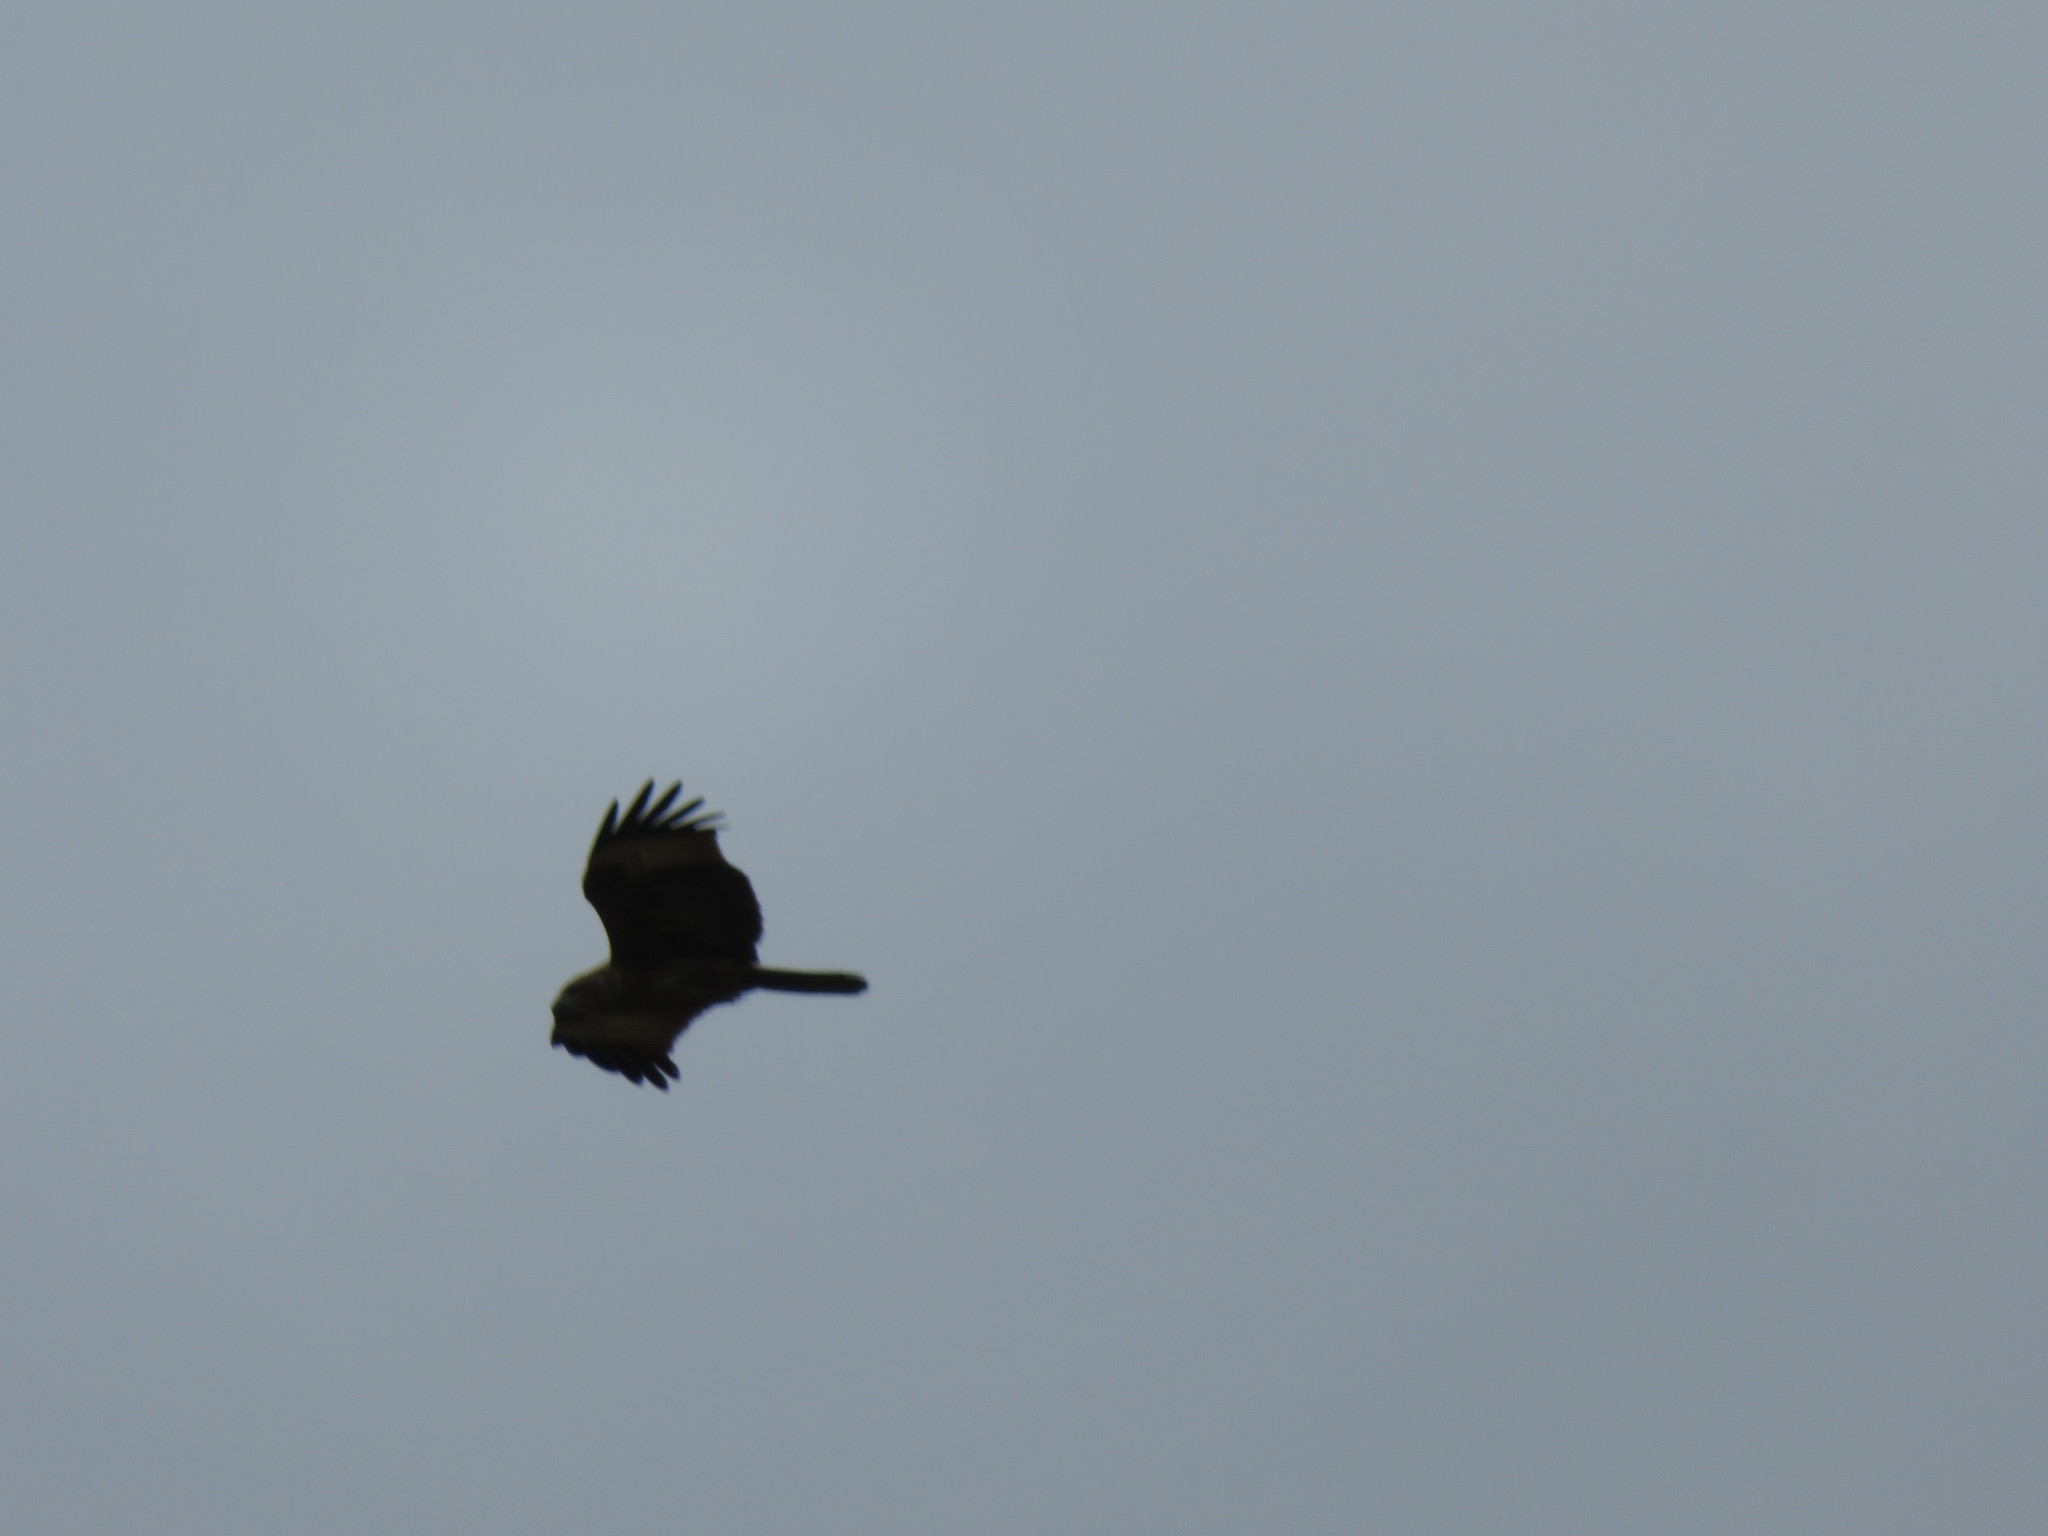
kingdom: Animalia
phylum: Chordata
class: Aves
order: Accipitriformes
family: Accipitridae
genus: Haliastur
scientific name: Haliastur indus
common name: Brahminy kite
